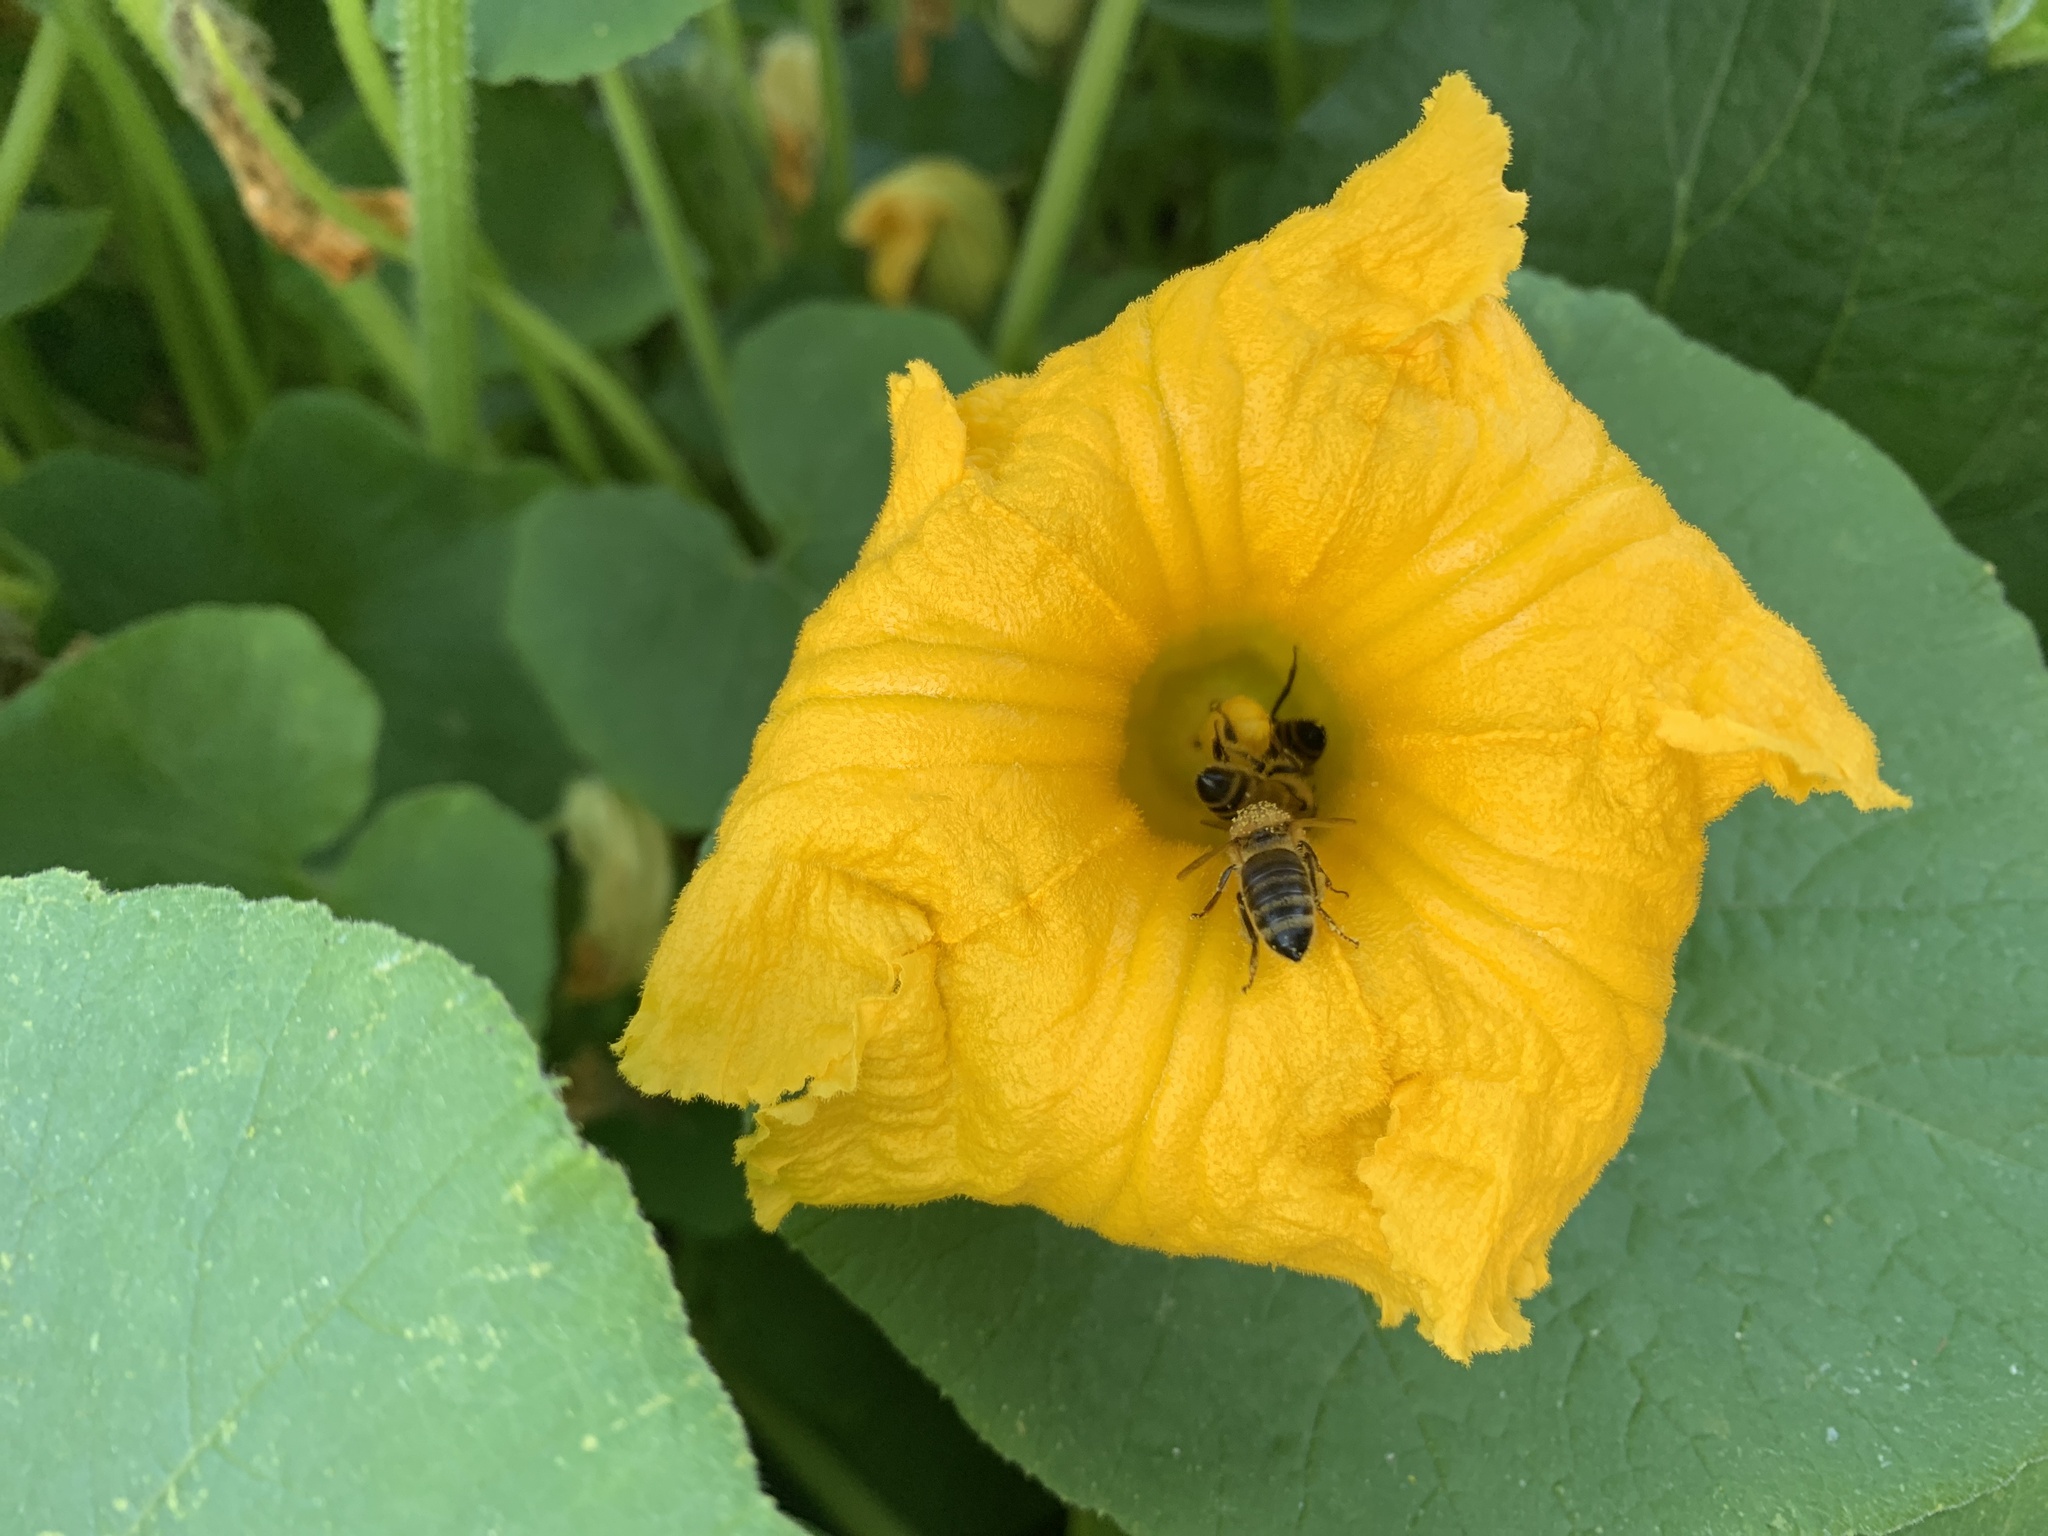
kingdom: Animalia
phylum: Arthropoda
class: Insecta
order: Hymenoptera
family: Apidae
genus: Apis
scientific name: Apis mellifera
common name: Honey bee
